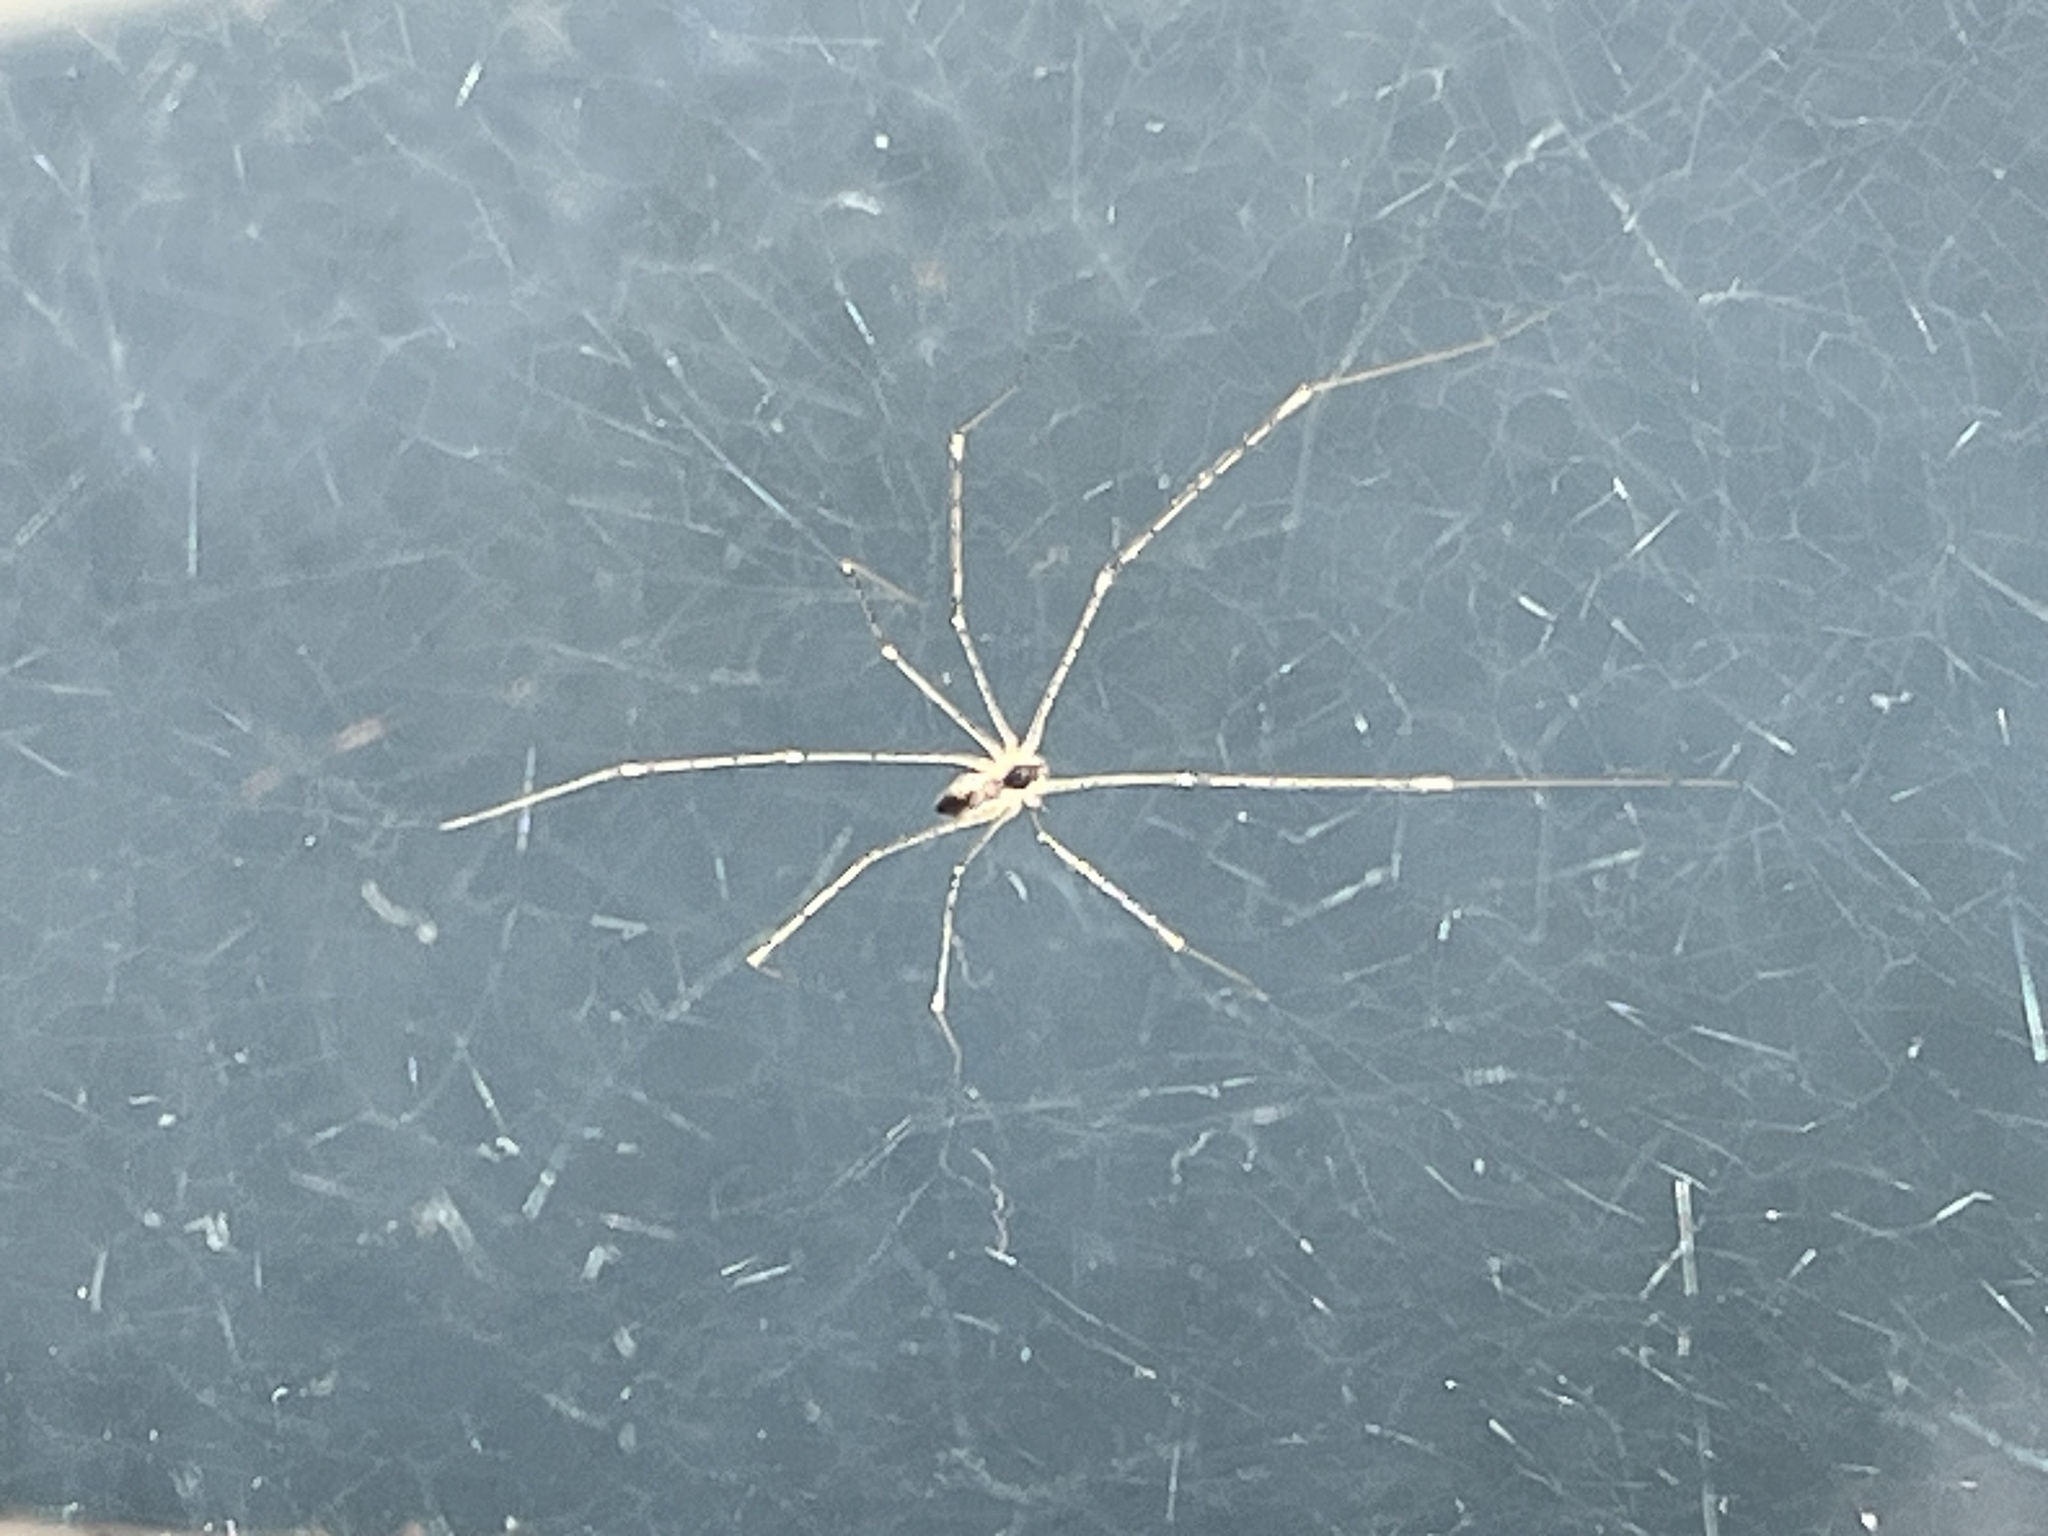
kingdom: Animalia
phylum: Arthropoda
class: Arachnida
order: Araneae
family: Pholcidae
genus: Crossopriza
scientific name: Crossopriza lyoni
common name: Cellar spiders
